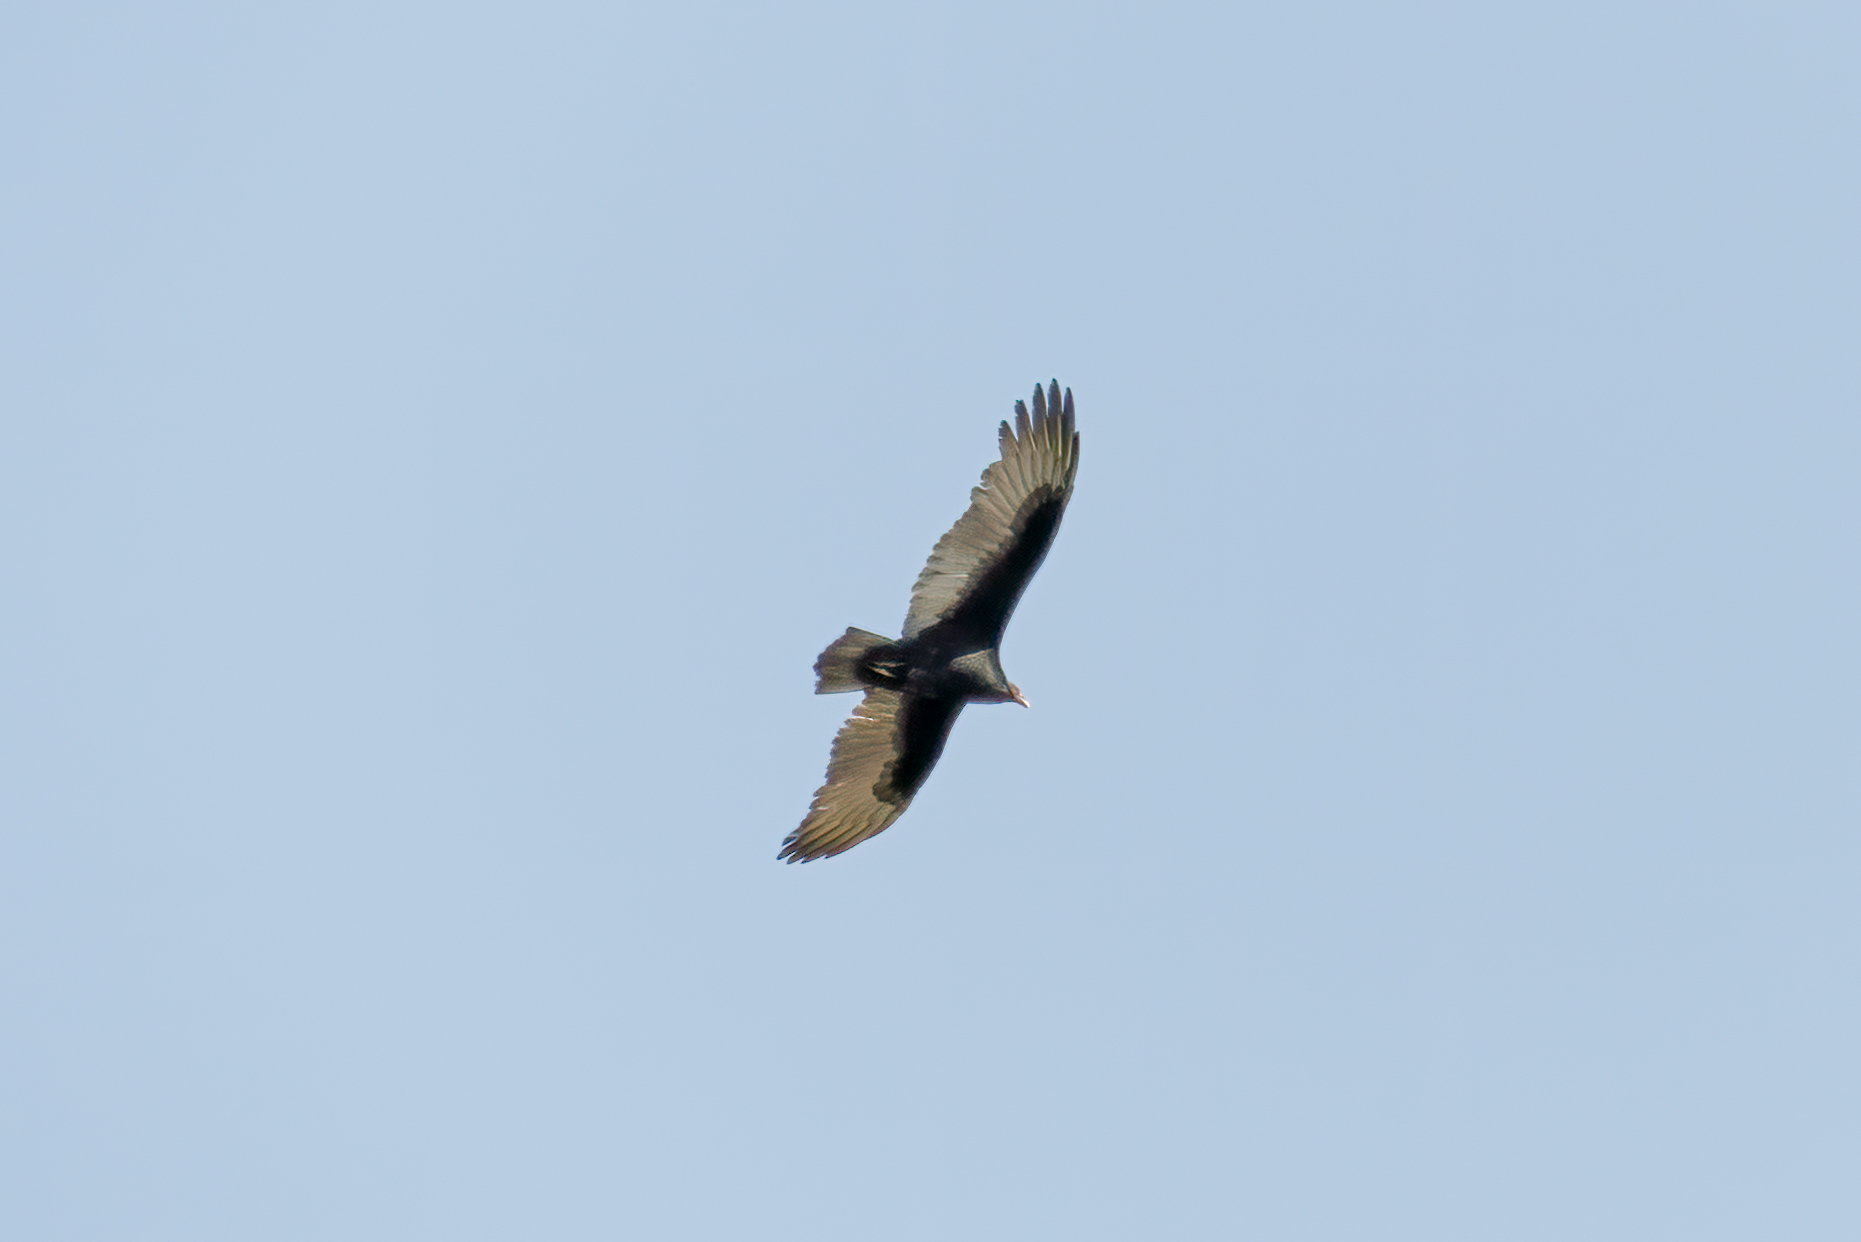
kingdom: Animalia
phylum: Chordata
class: Aves
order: Accipitriformes
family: Cathartidae
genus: Cathartes
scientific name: Cathartes aura
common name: Turkey vulture
